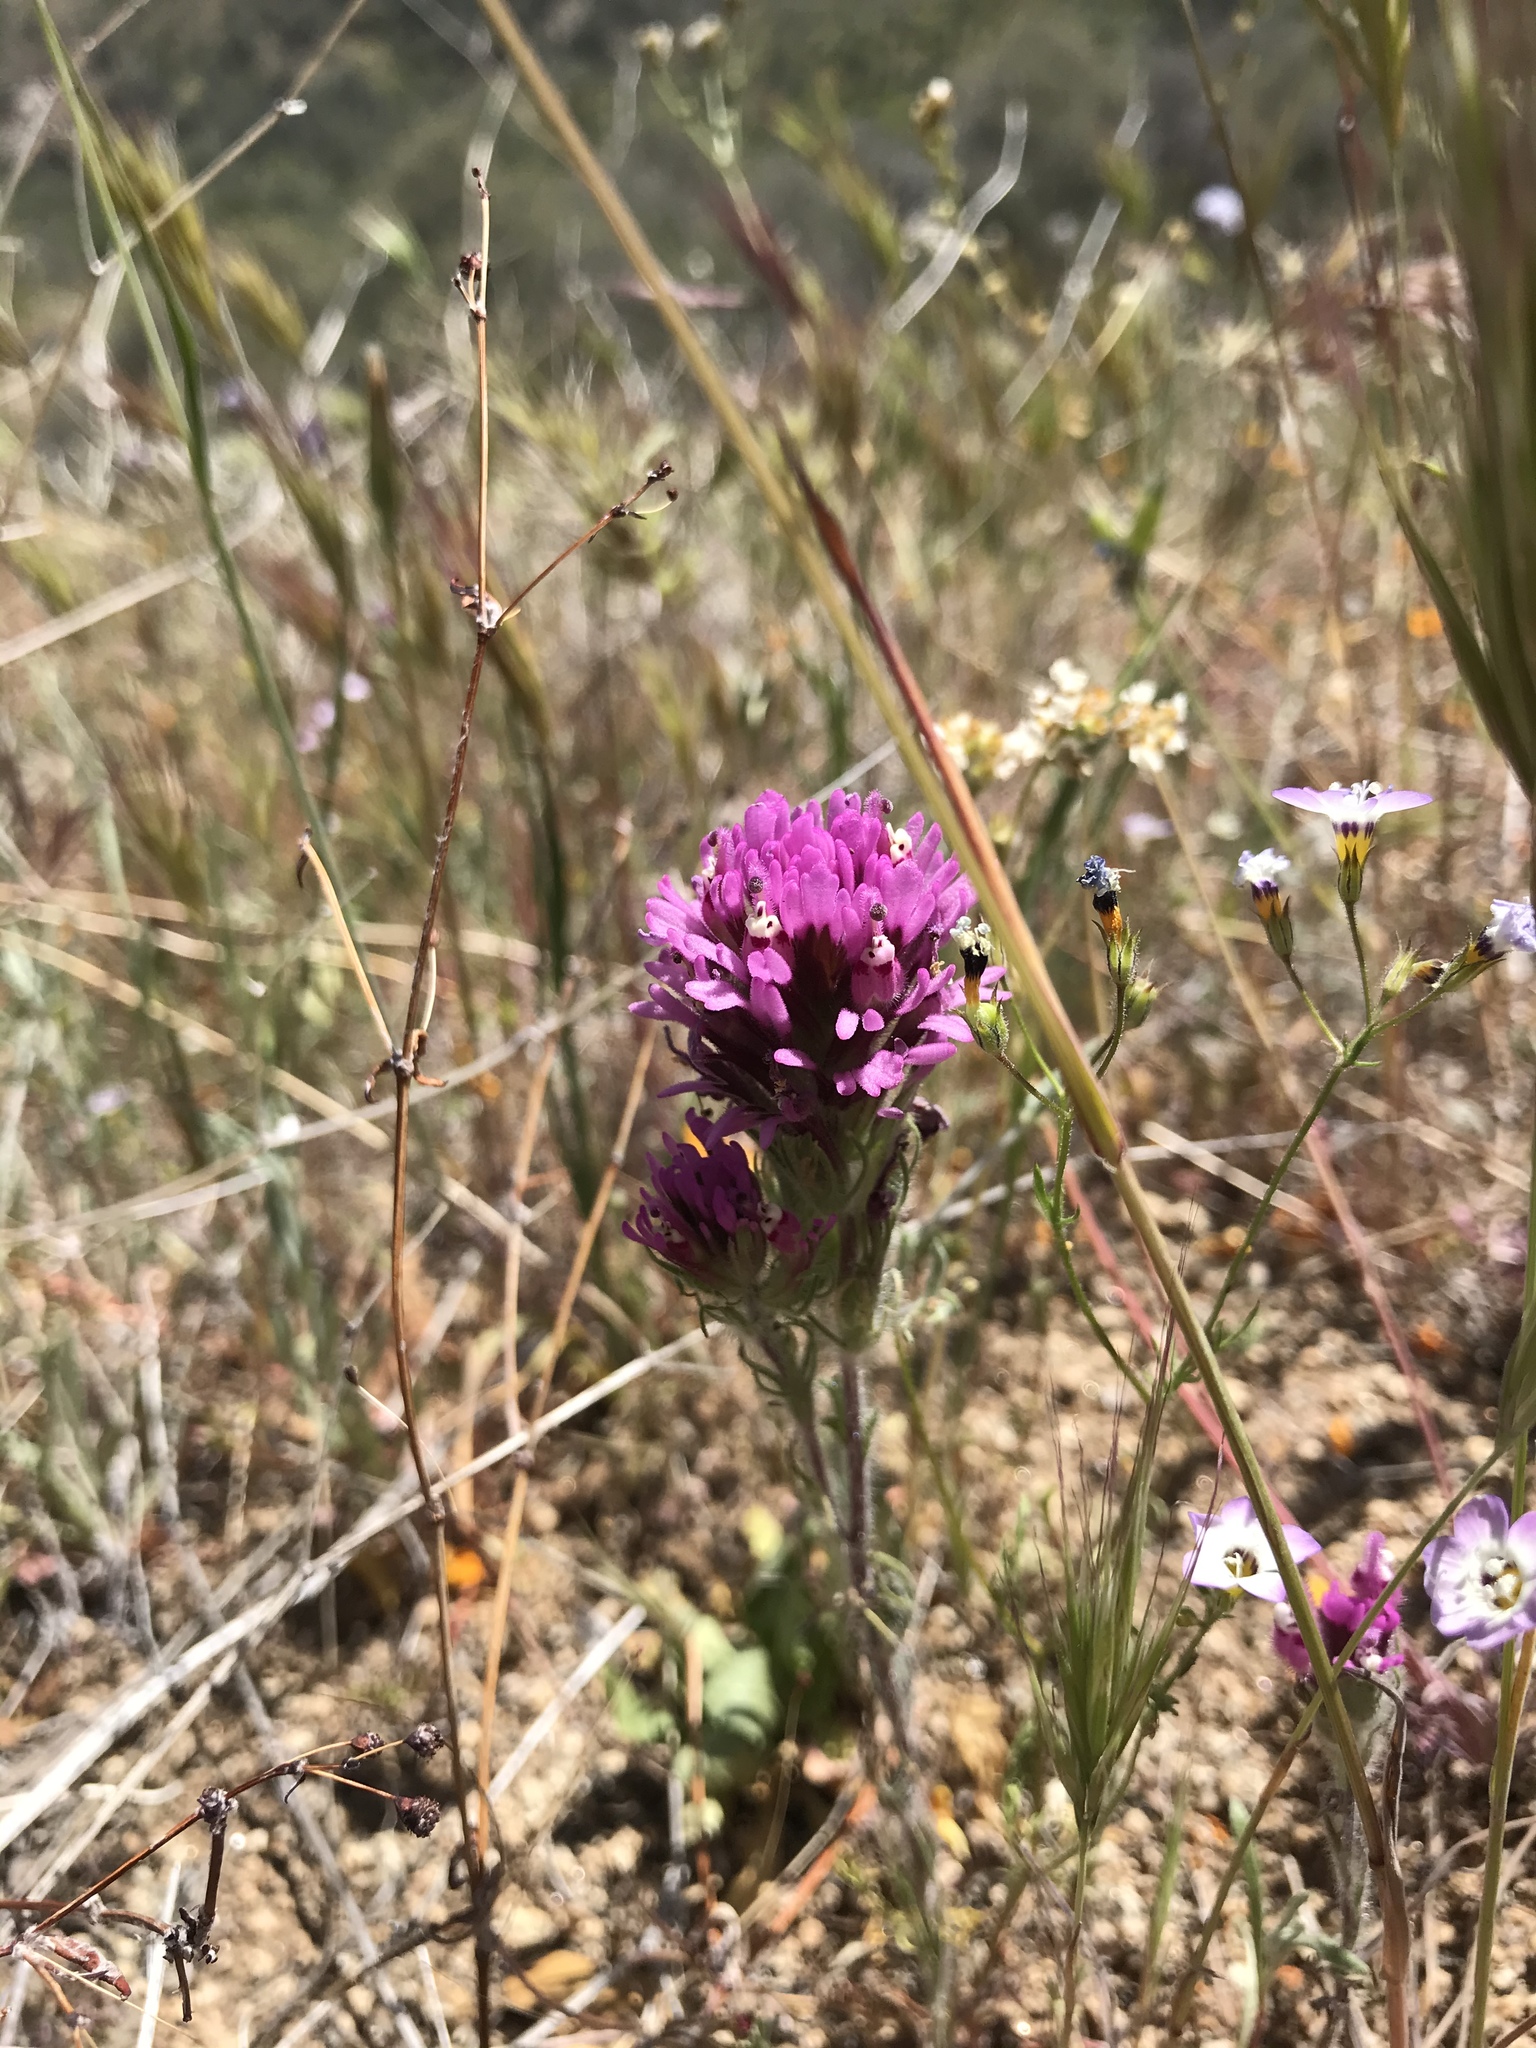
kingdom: Plantae
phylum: Tracheophyta
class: Magnoliopsida
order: Lamiales
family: Orobanchaceae
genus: Castilleja
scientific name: Castilleja exserta
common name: Purple owl-clover
